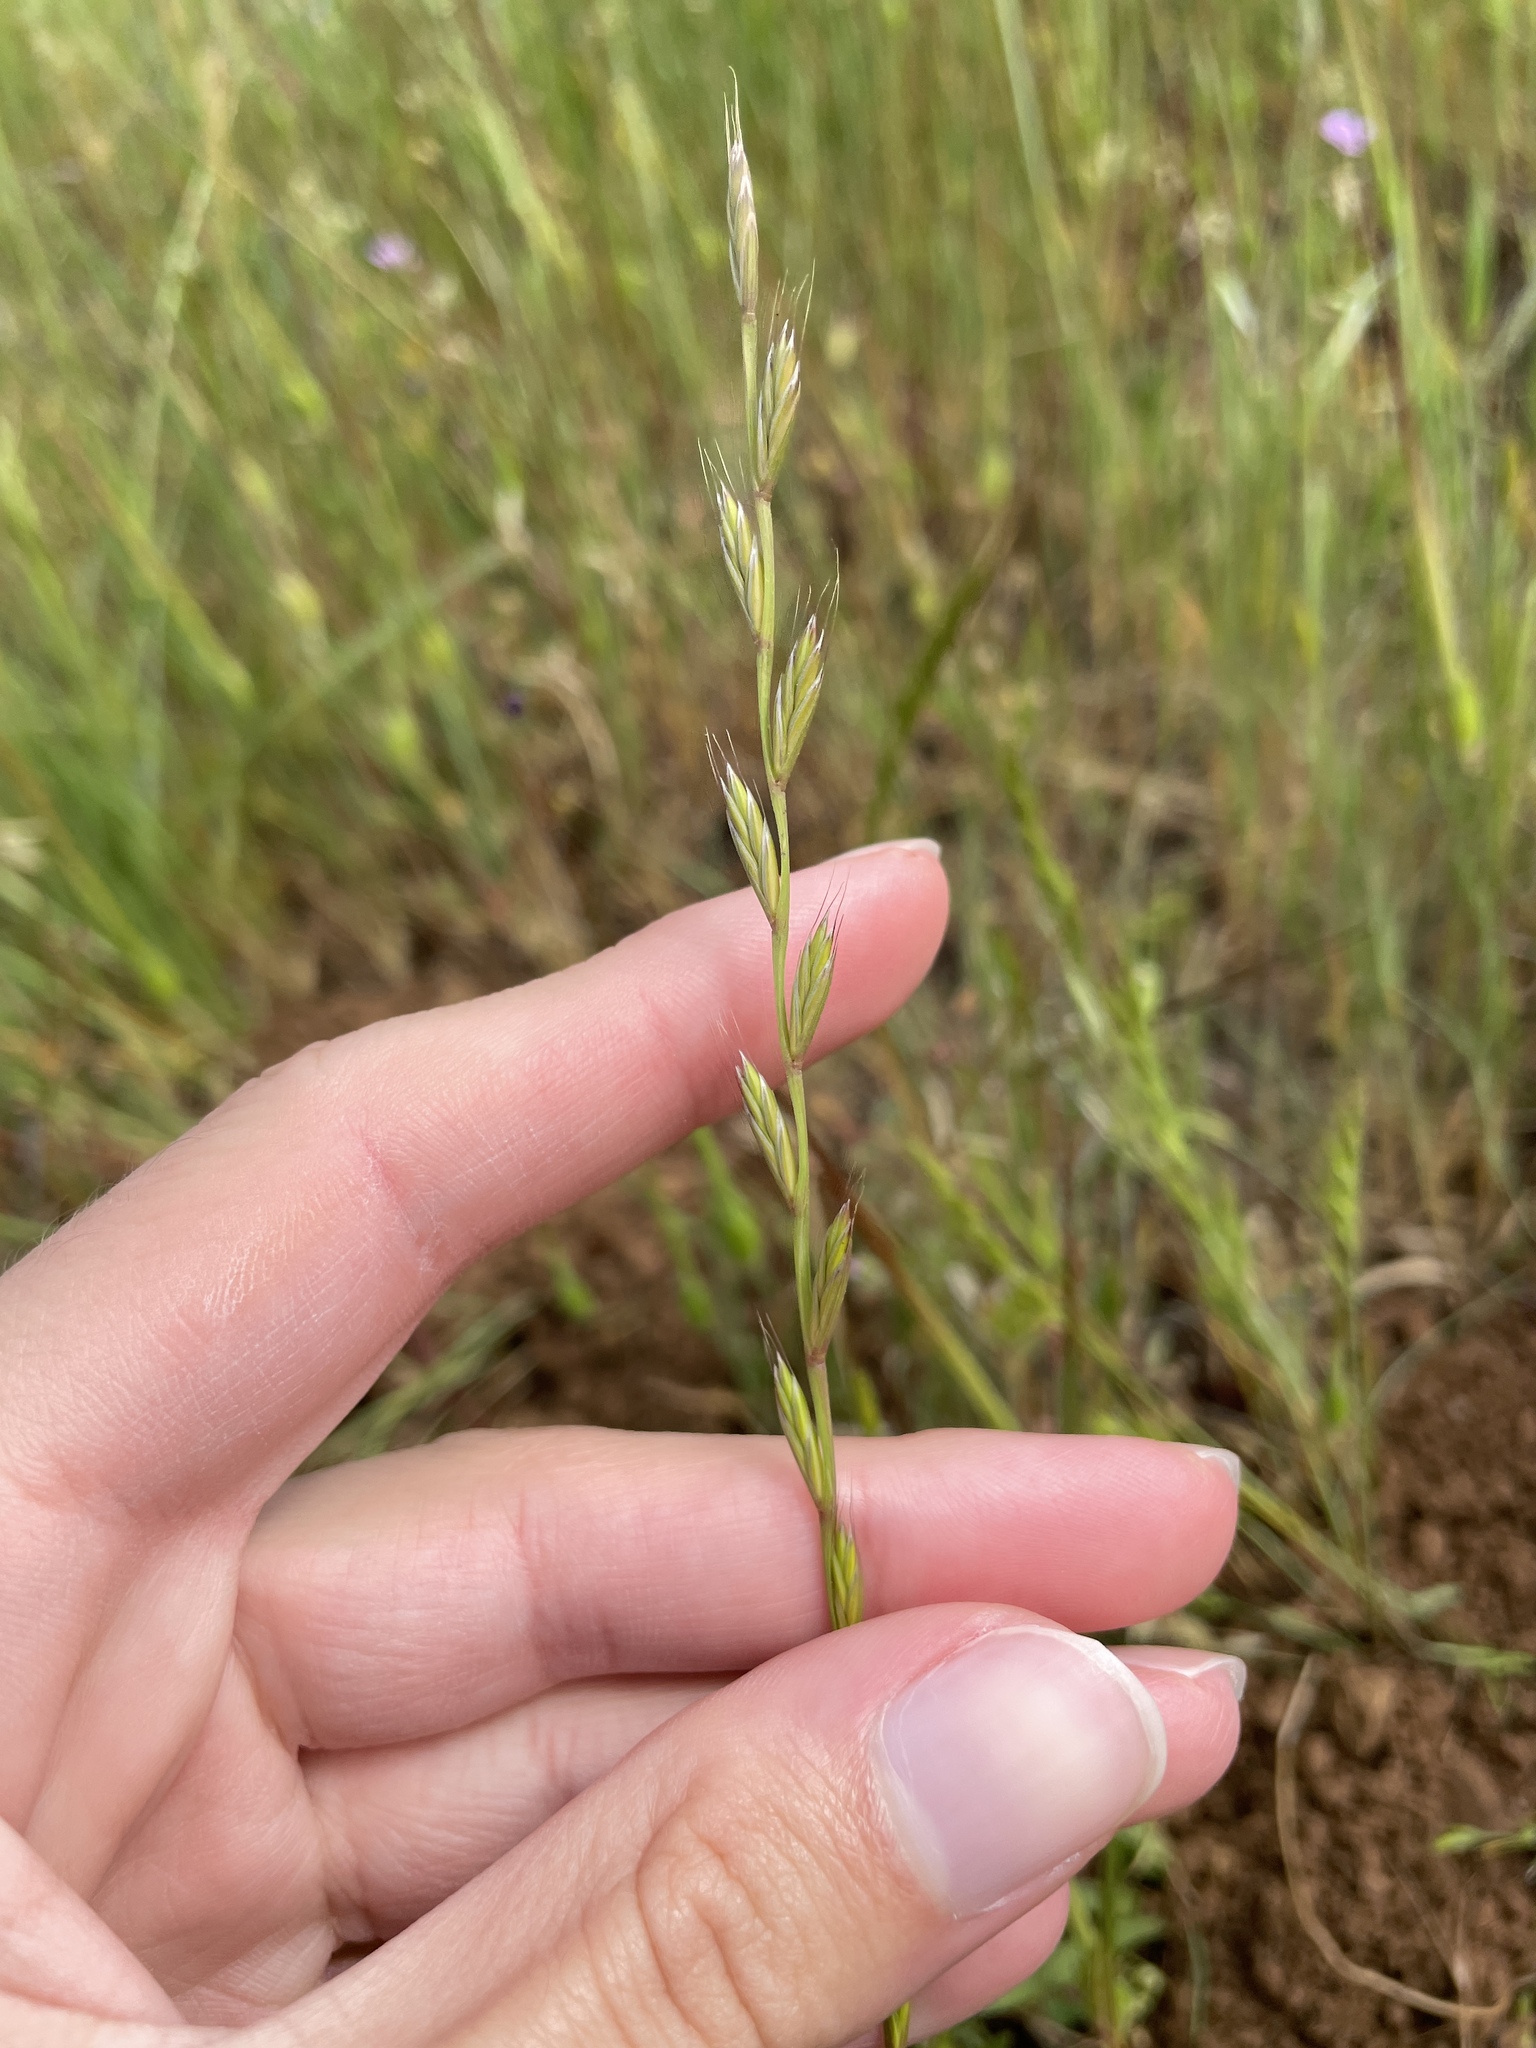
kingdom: Plantae
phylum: Tracheophyta
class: Liliopsida
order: Poales
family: Poaceae
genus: Lolium
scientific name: Lolium perenne
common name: Perennial ryegrass
